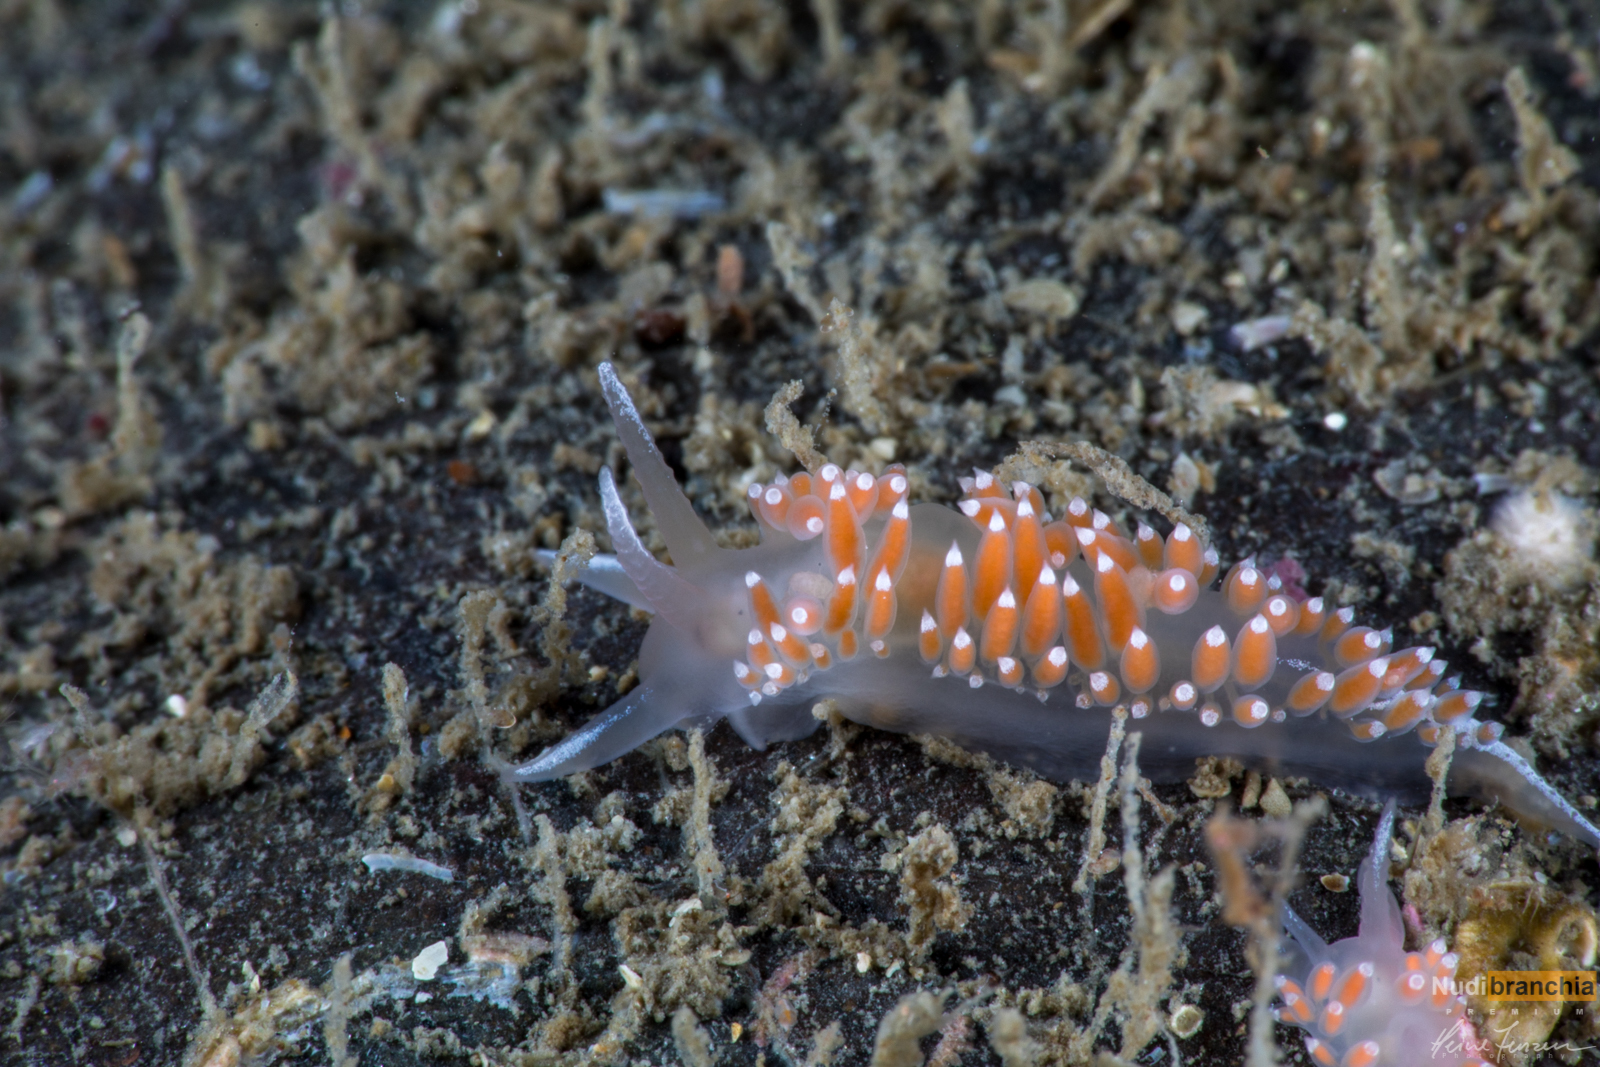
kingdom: Animalia
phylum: Mollusca
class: Gastropoda
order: Nudibranchia
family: Coryphellidae
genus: Coryphella
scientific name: Coryphella verrucosa
